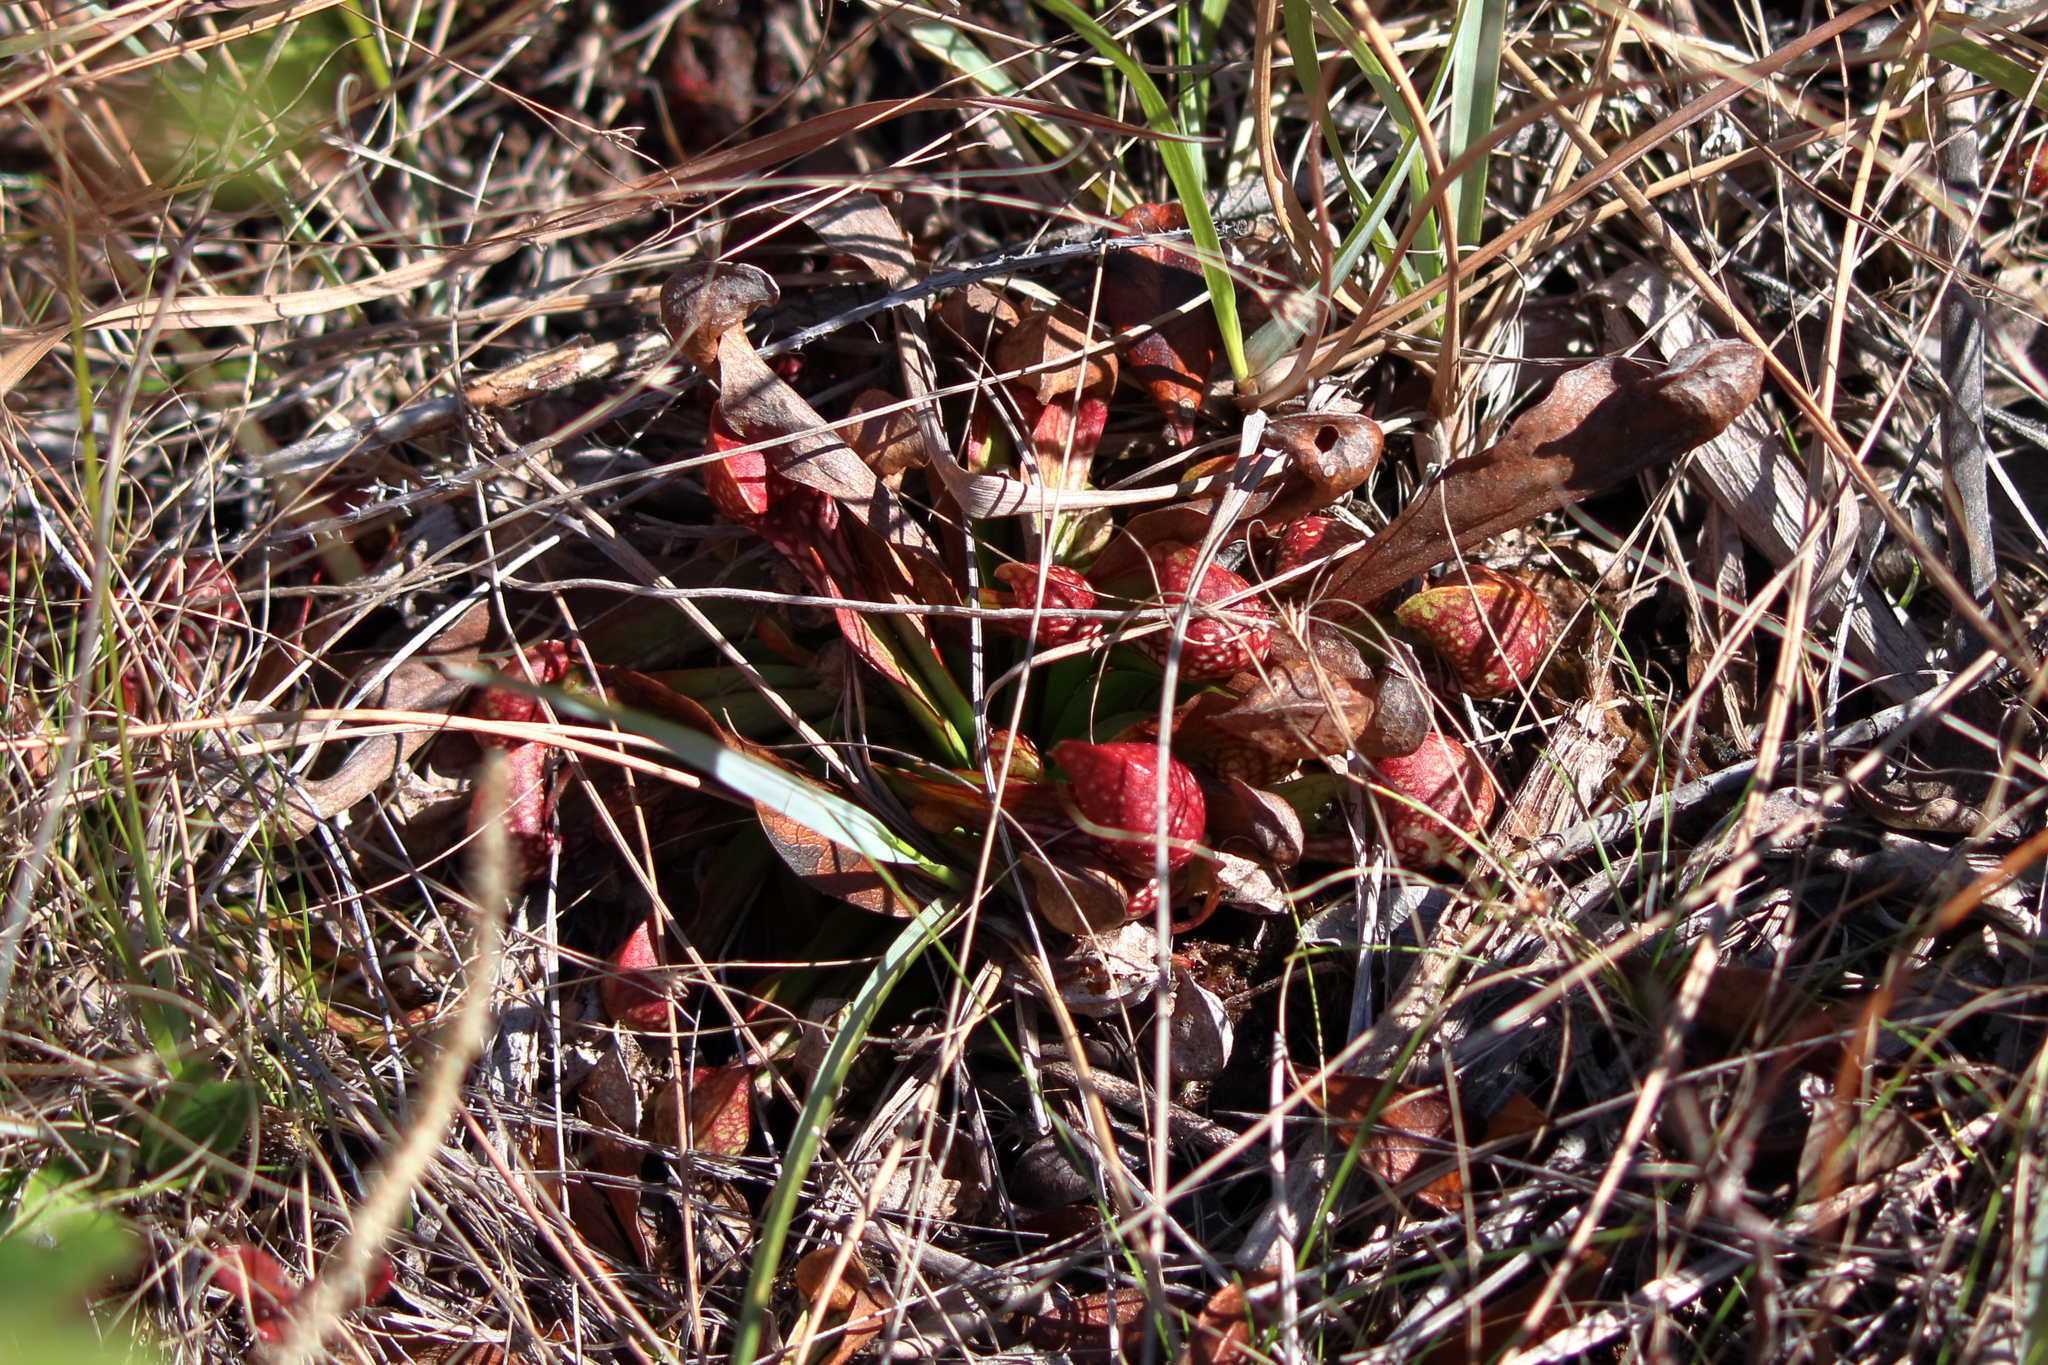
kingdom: Plantae
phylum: Tracheophyta
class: Magnoliopsida
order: Ericales
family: Sarraceniaceae
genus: Sarracenia
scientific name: Sarracenia psittacina
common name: Parrot pitcherplant
